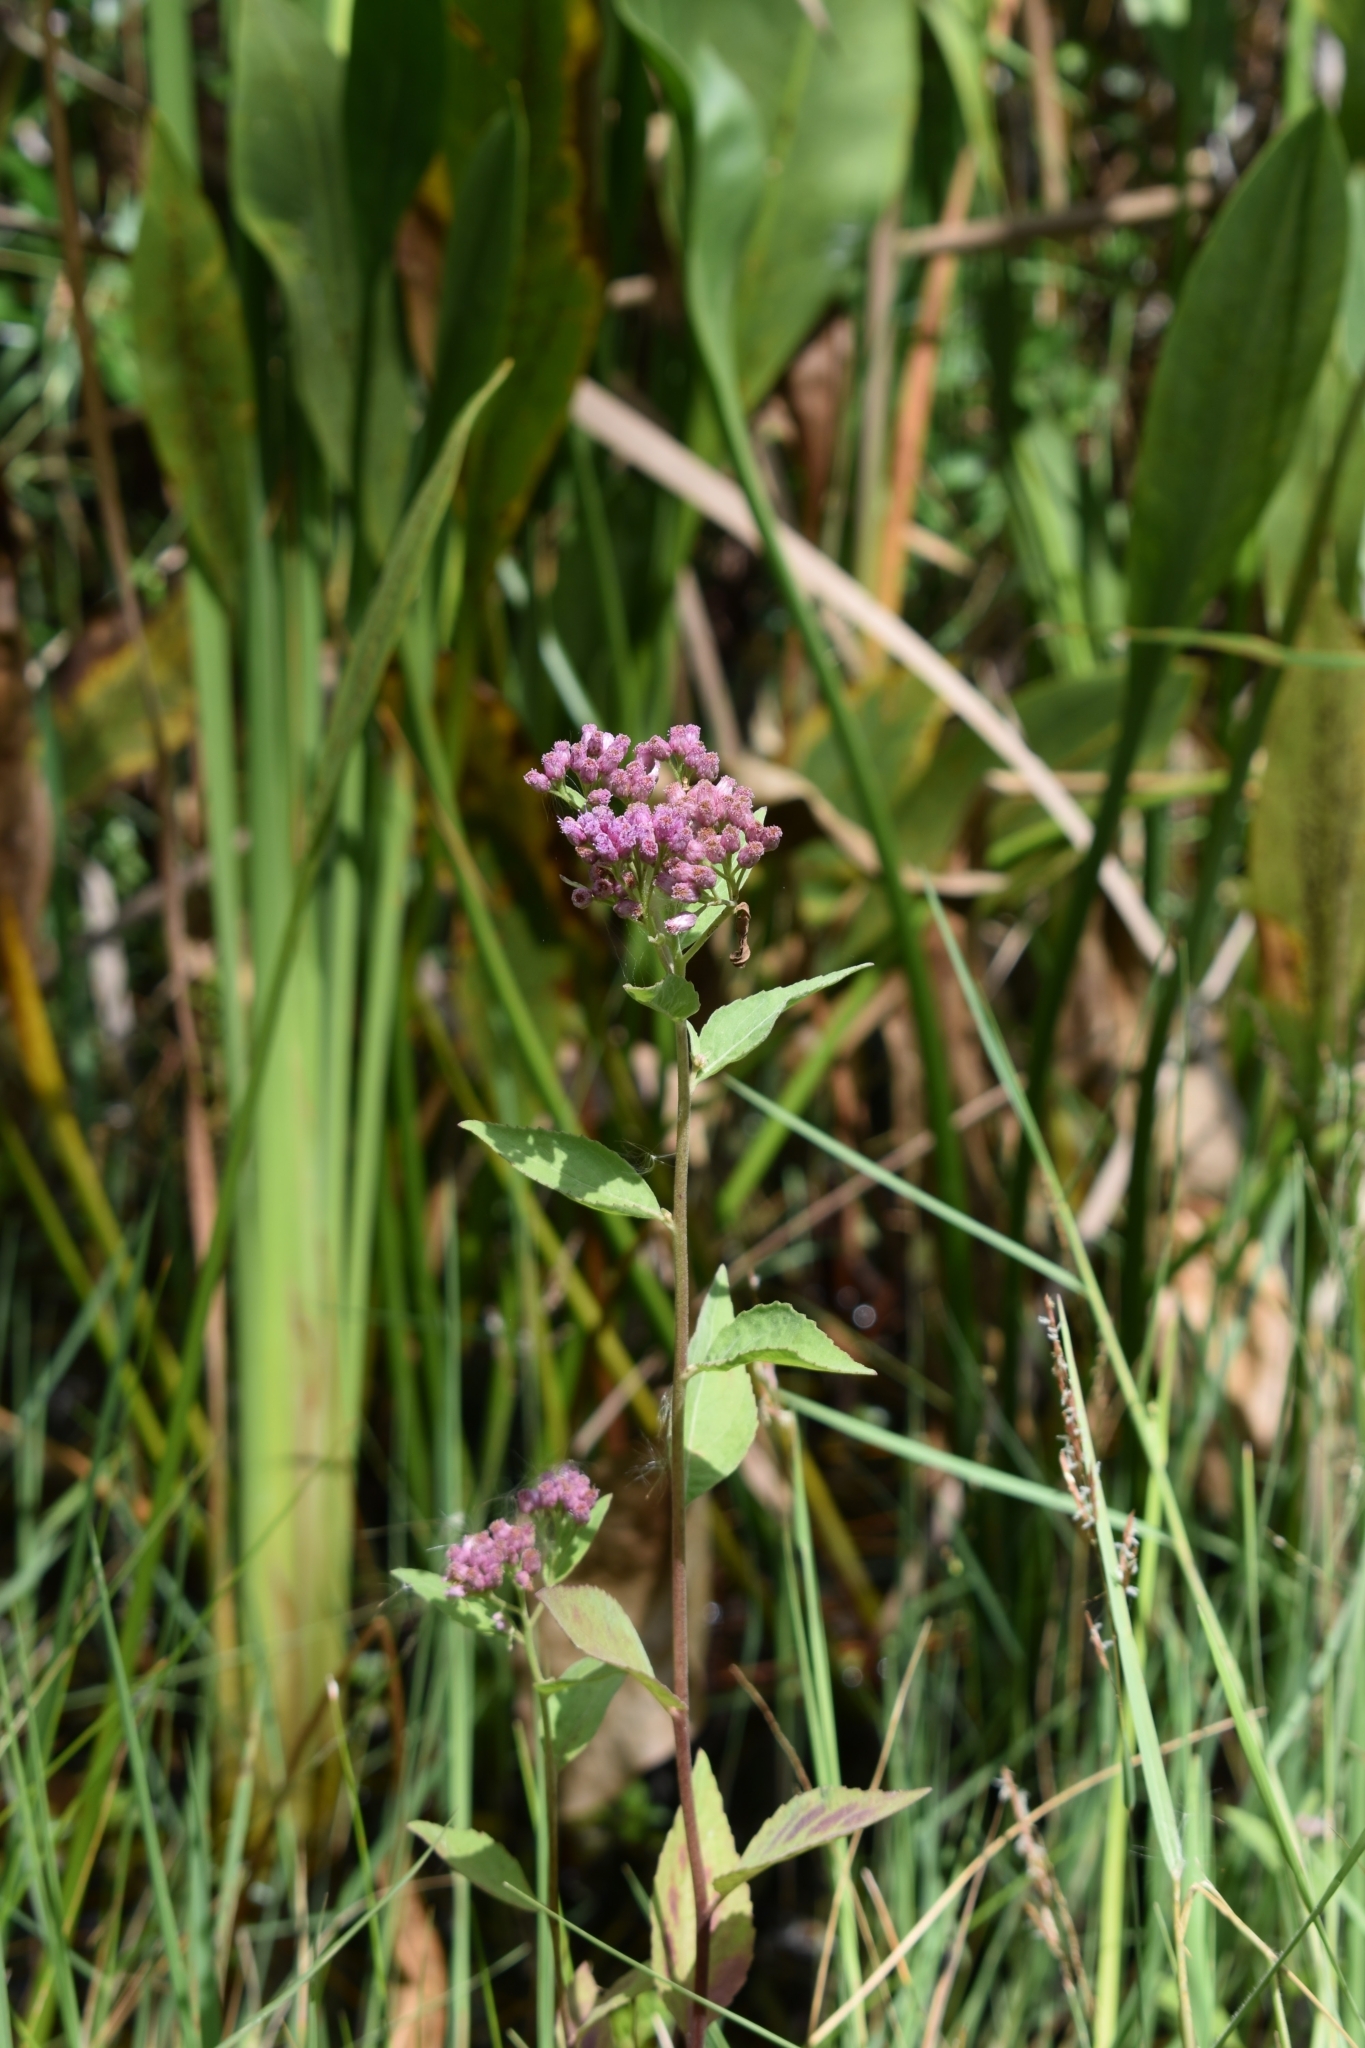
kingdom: Plantae
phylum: Tracheophyta
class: Magnoliopsida
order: Asterales
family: Asteraceae
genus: Pluchea
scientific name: Pluchea odorata
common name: Saltmarsh fleabane
